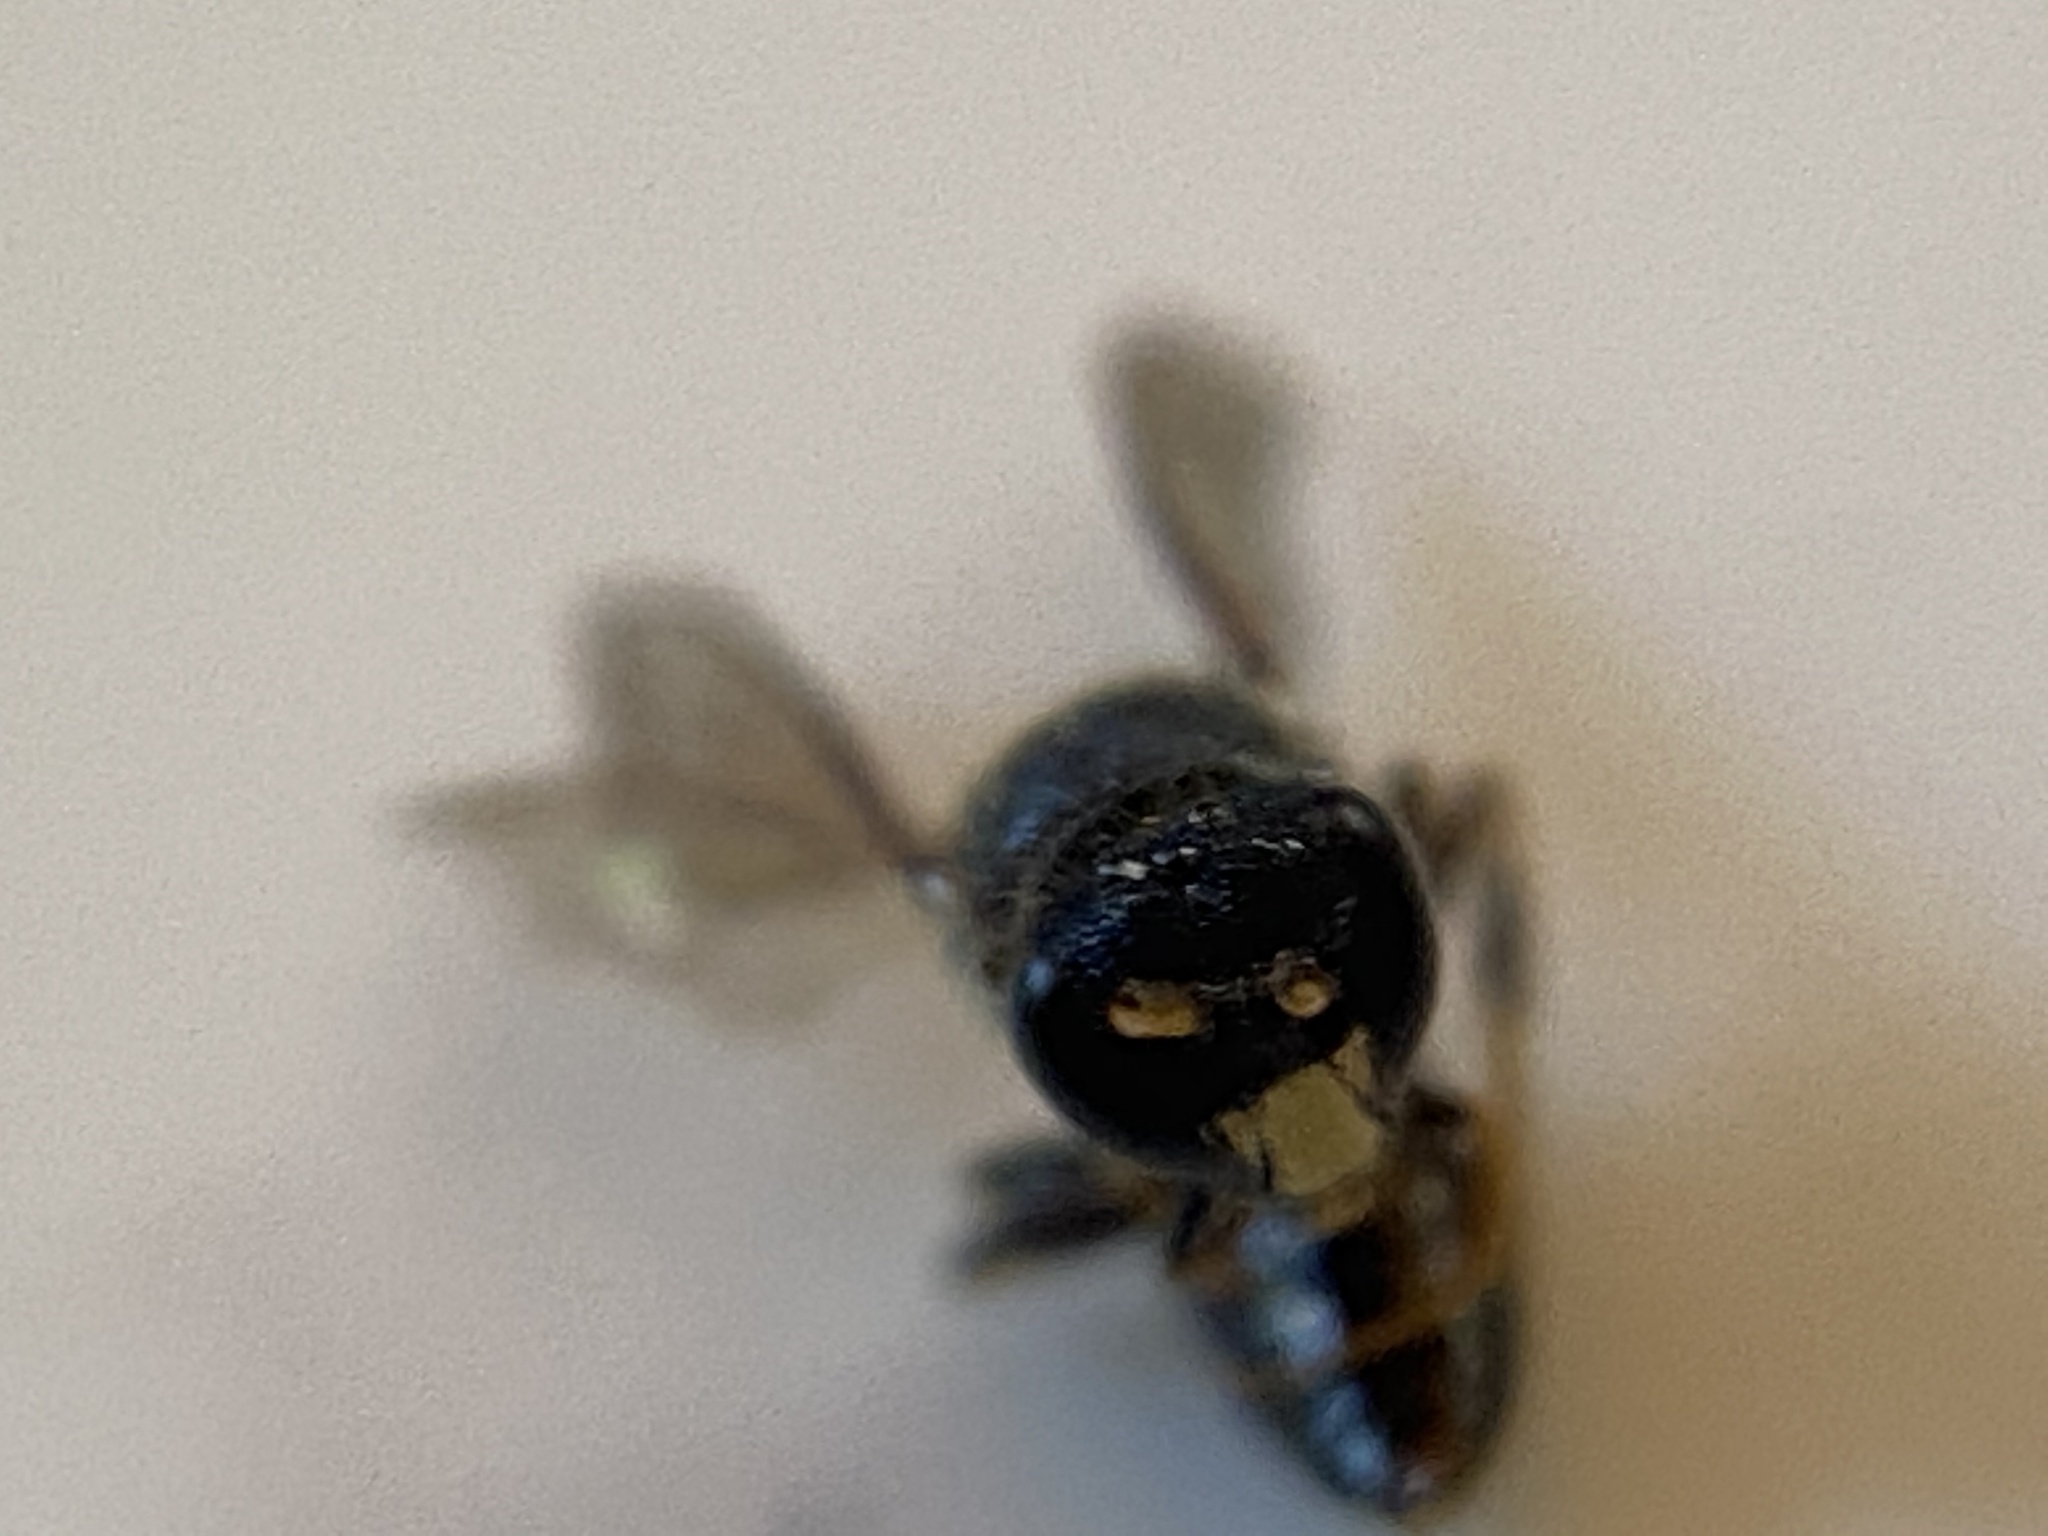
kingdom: Animalia
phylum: Arthropoda
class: Insecta
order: Hymenoptera
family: Colletidae
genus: Hylaeus
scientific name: Hylaeus punctatus
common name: Punctate masked bee
